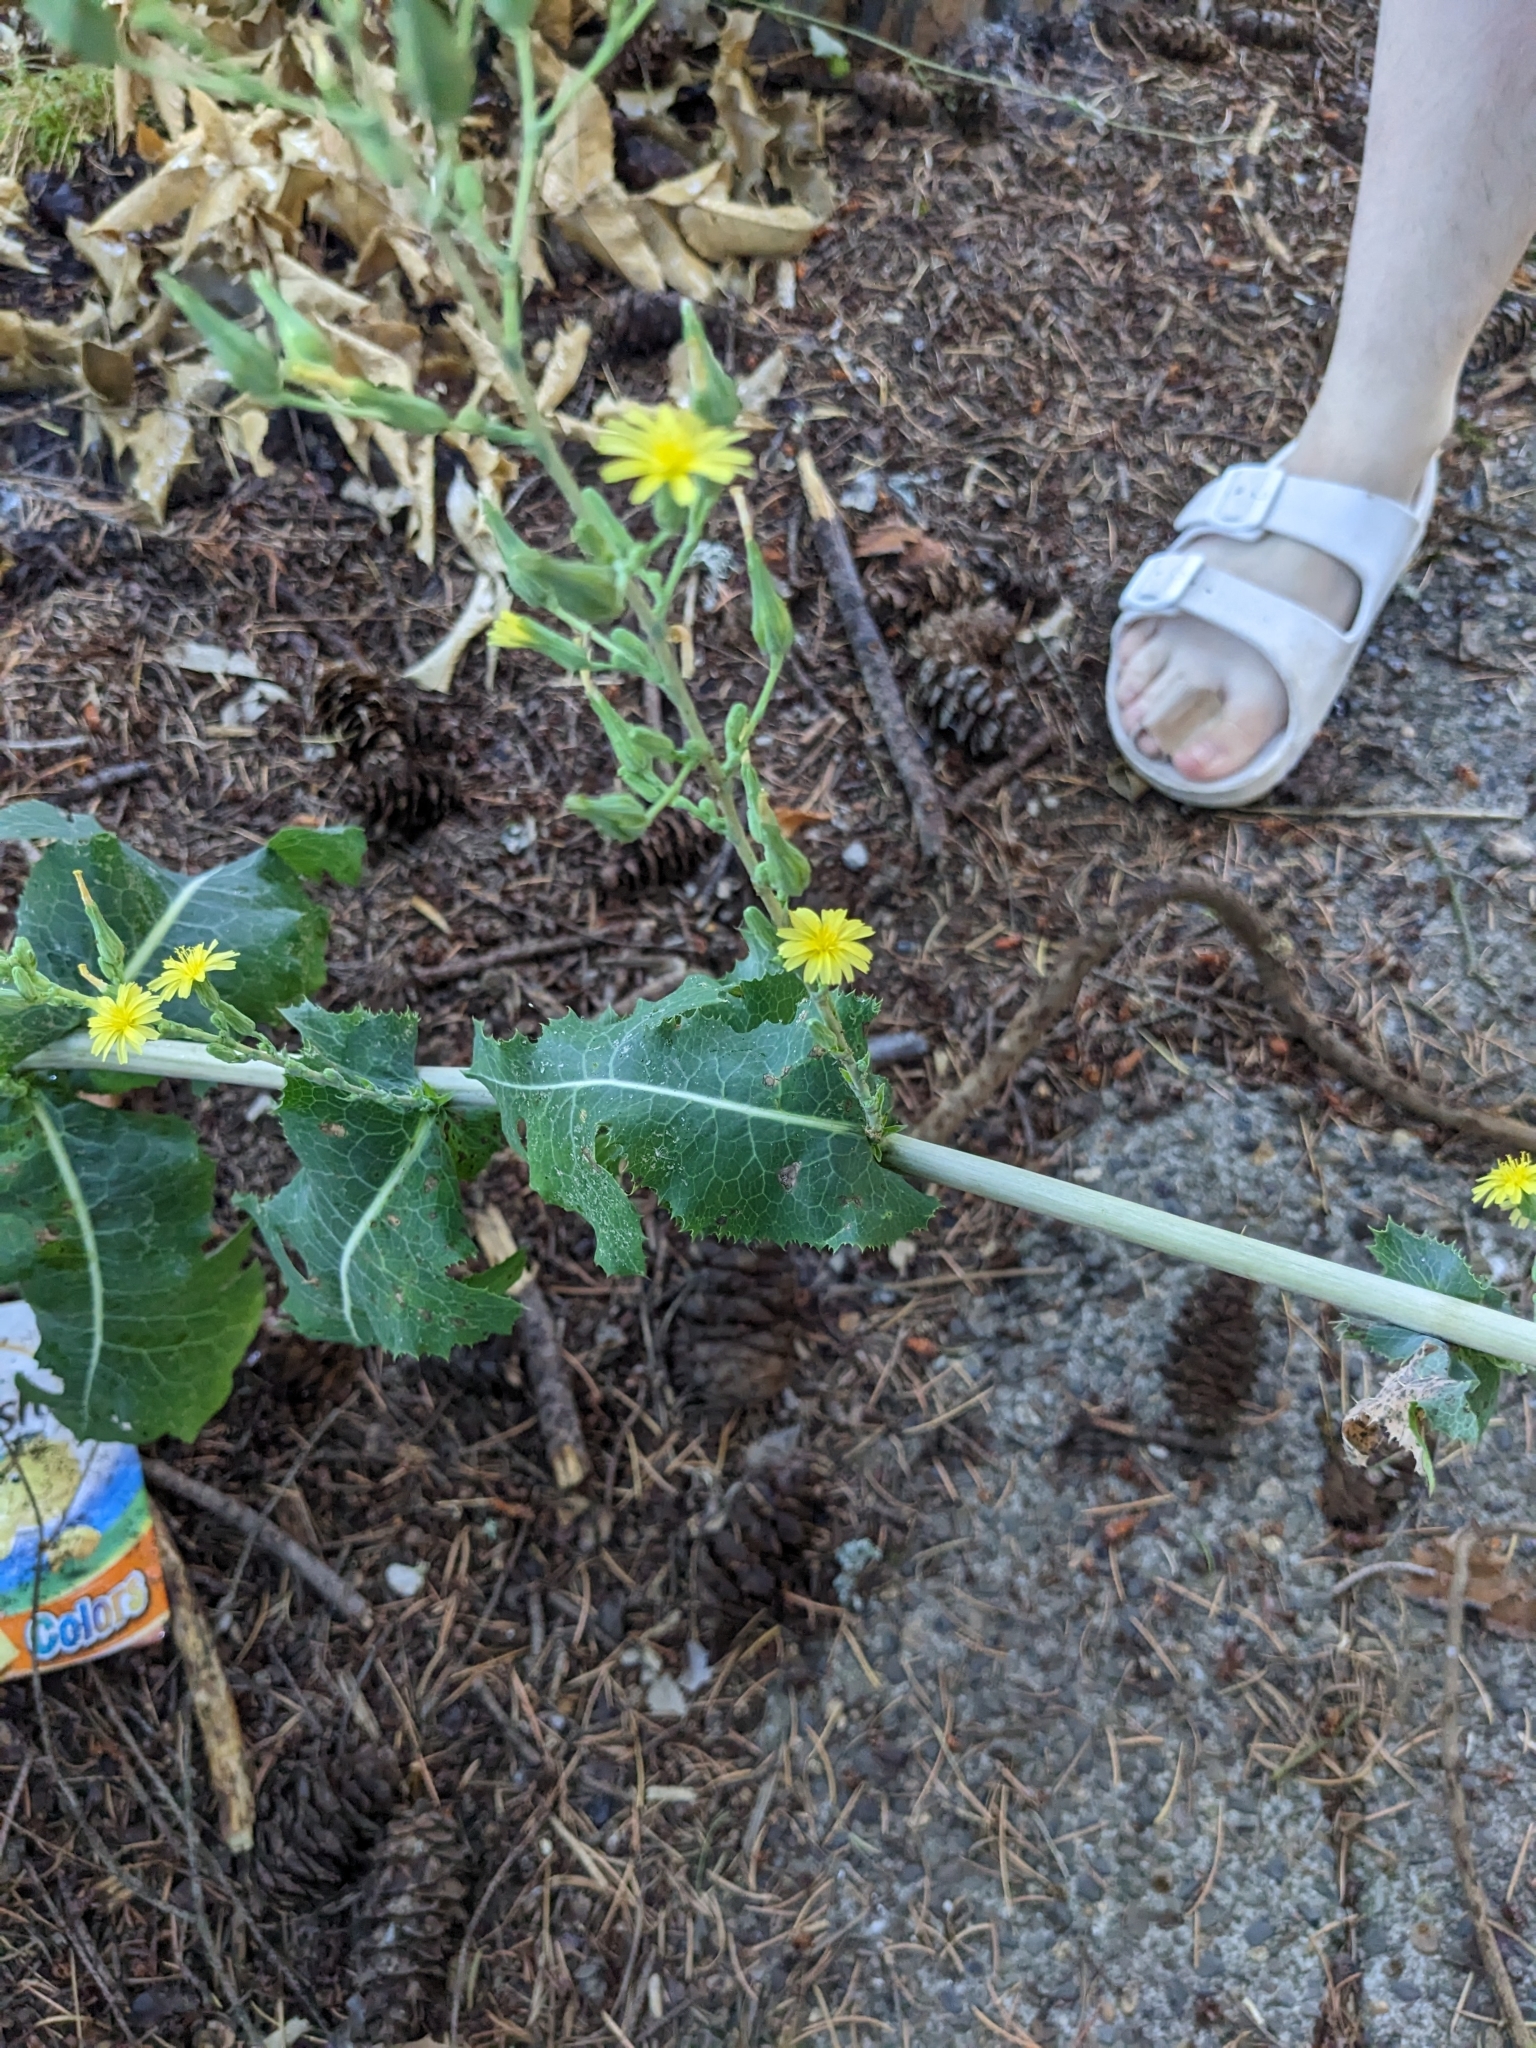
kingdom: Plantae
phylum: Tracheophyta
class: Magnoliopsida
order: Asterales
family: Asteraceae
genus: Lactuca
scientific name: Lactuca serriola
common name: Prickly lettuce
